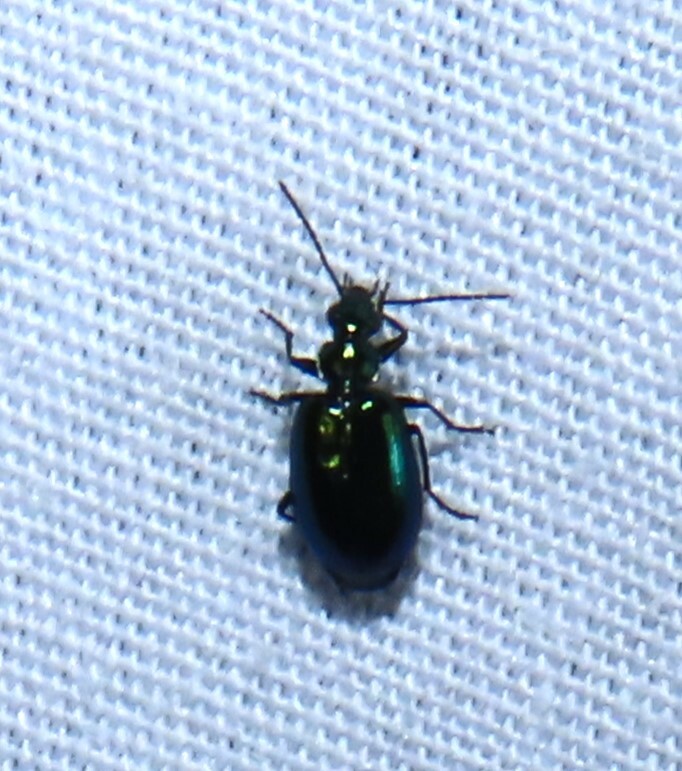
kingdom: Animalia
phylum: Arthropoda
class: Insecta
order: Coleoptera
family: Carabidae
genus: Lebia
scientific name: Lebia viridis
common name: Flower lebia beetle
